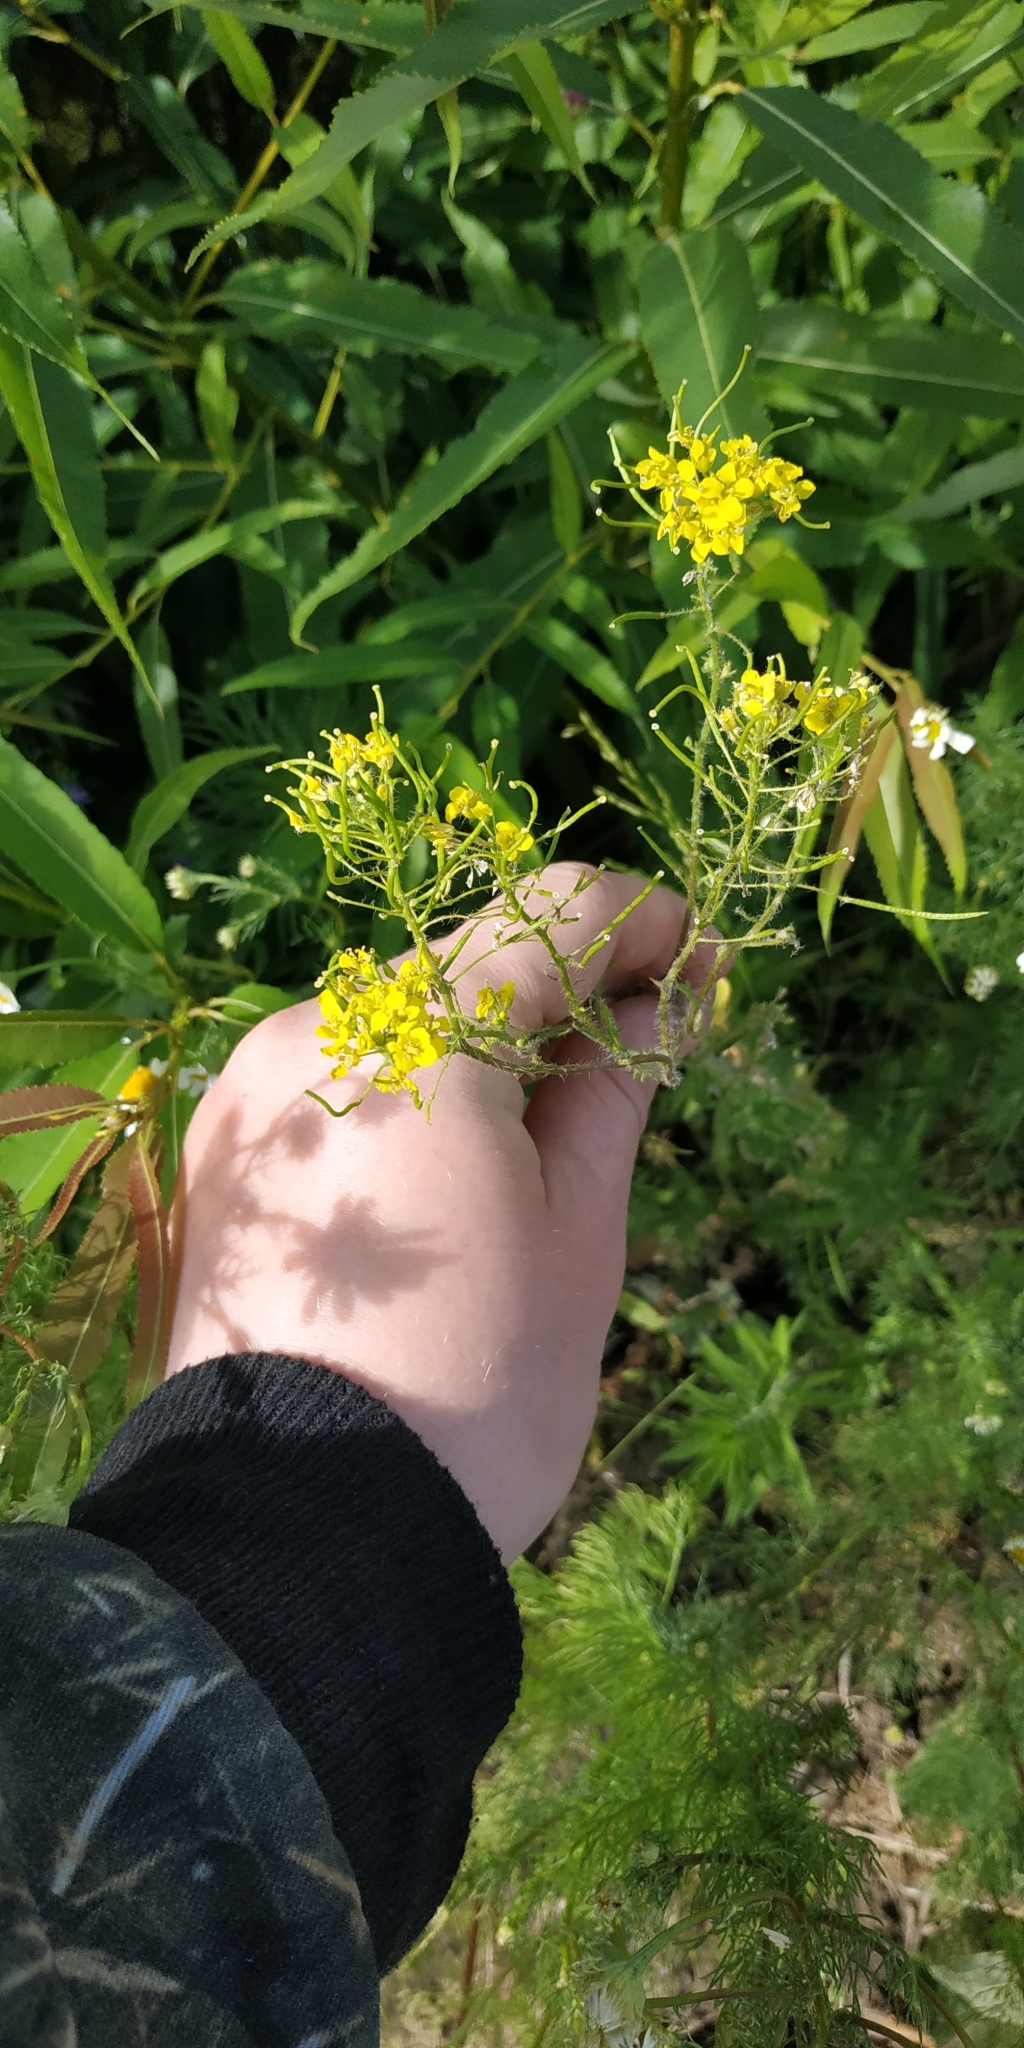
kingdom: Plantae
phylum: Tracheophyta
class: Magnoliopsida
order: Brassicales
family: Brassicaceae
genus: Sisymbrium
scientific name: Sisymbrium loeselii
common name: False london-rocket
